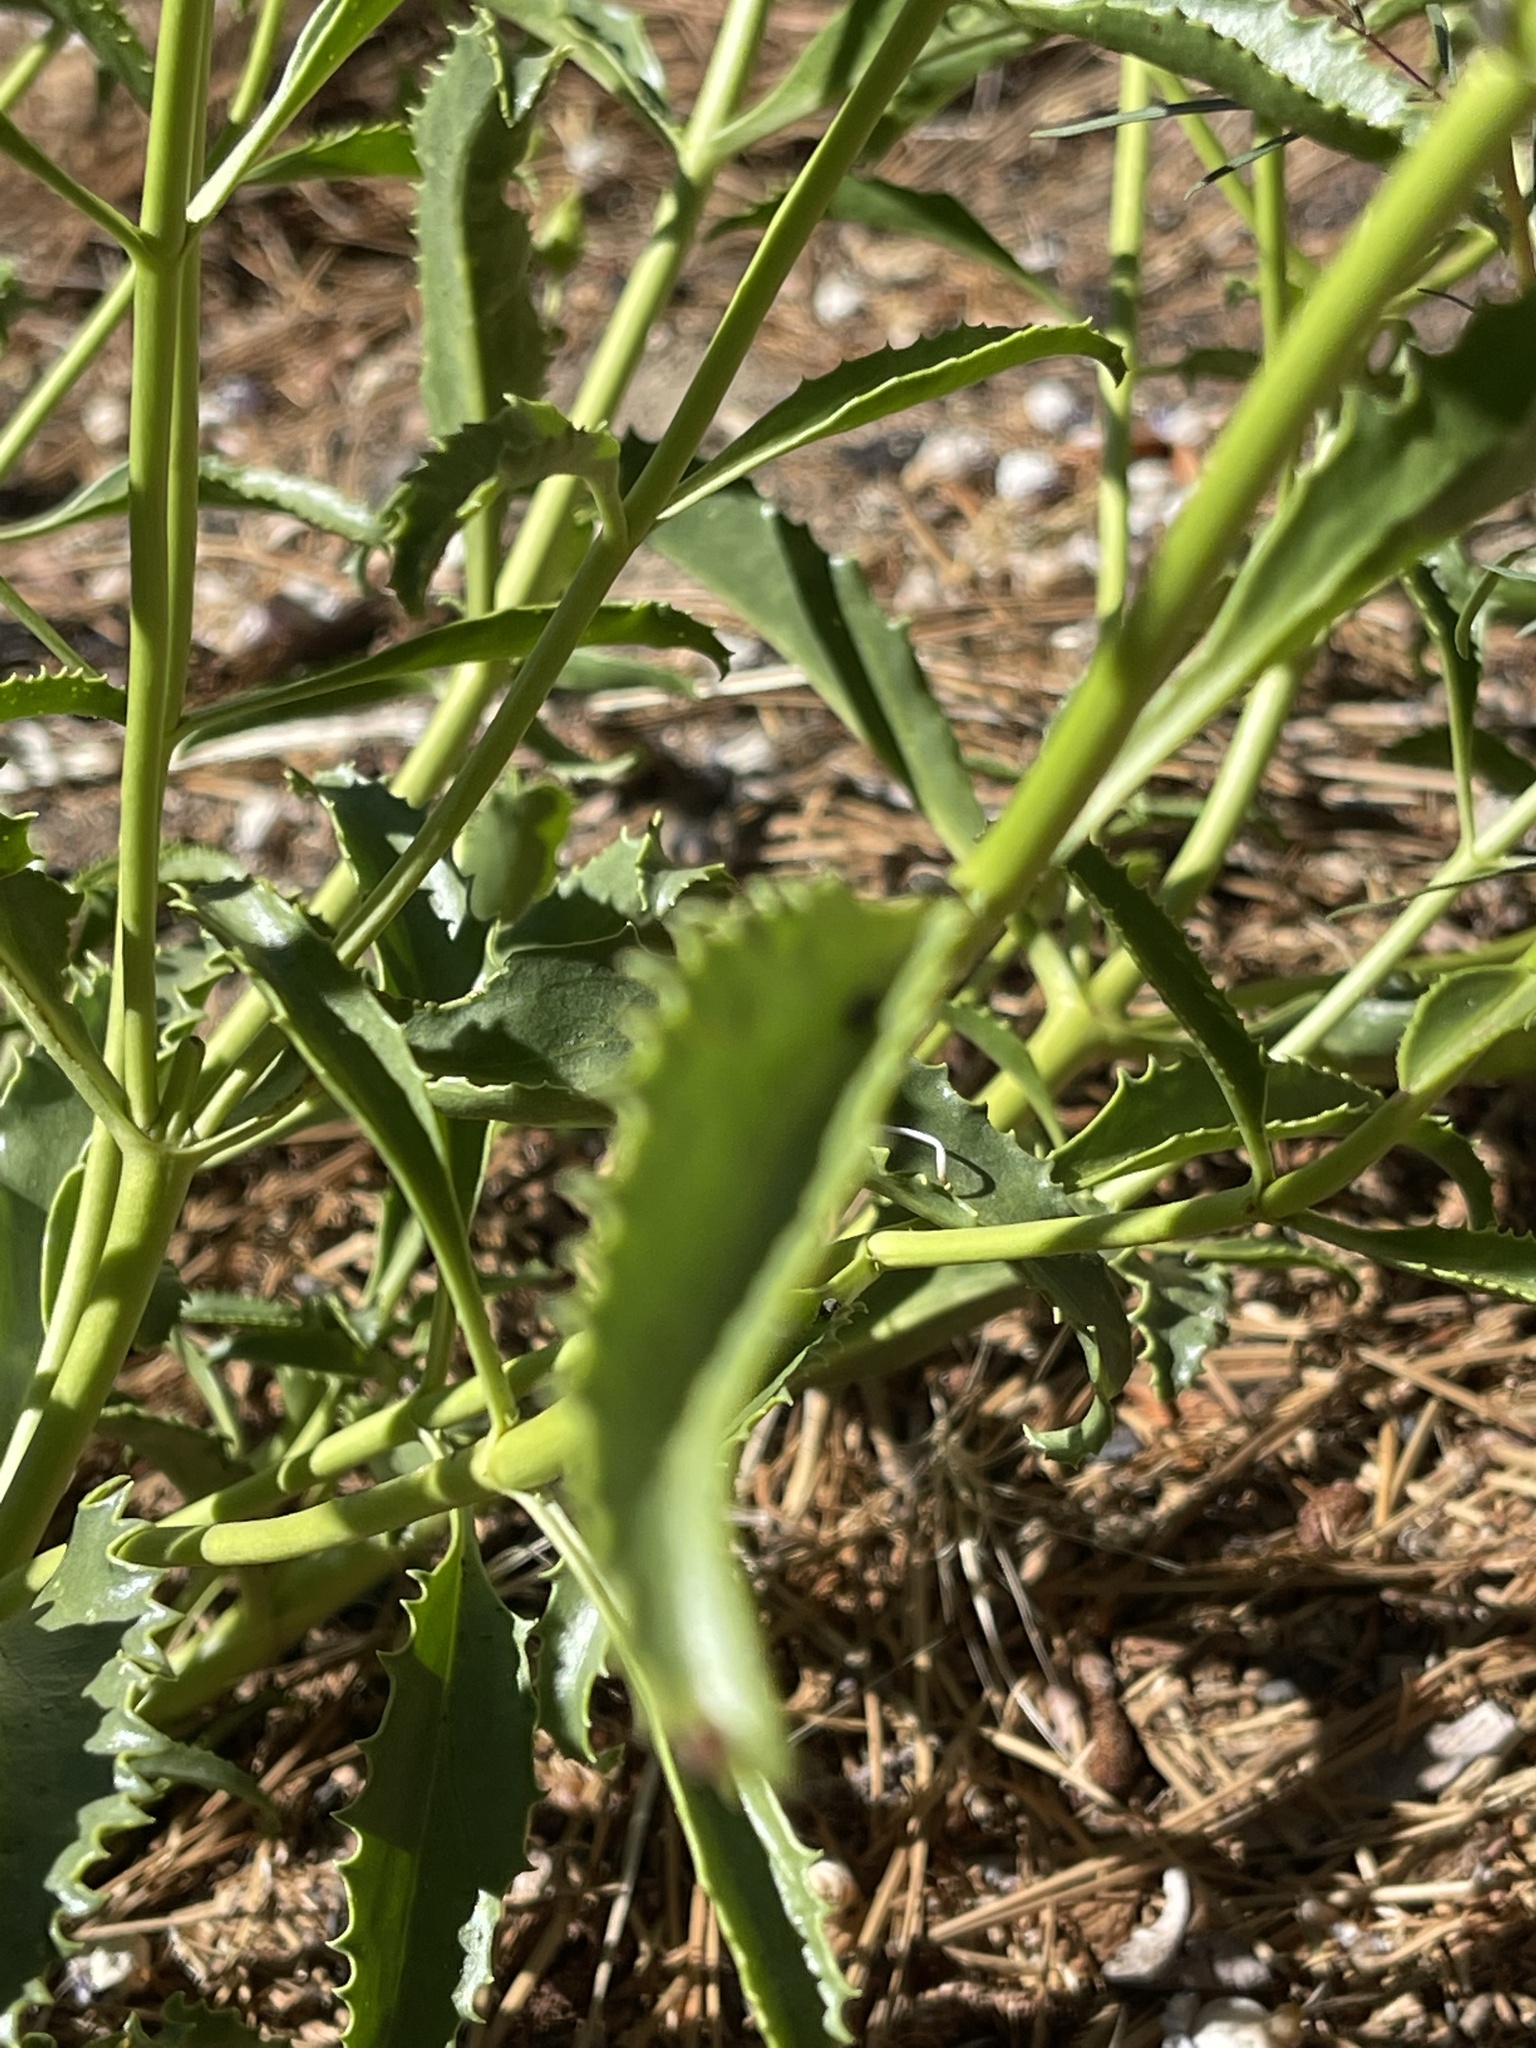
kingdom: Plantae
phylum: Tracheophyta
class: Magnoliopsida
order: Lamiales
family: Plantaginaceae
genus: Penstemon
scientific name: Penstemon grinnellii
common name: Grinnell's beardtongue
